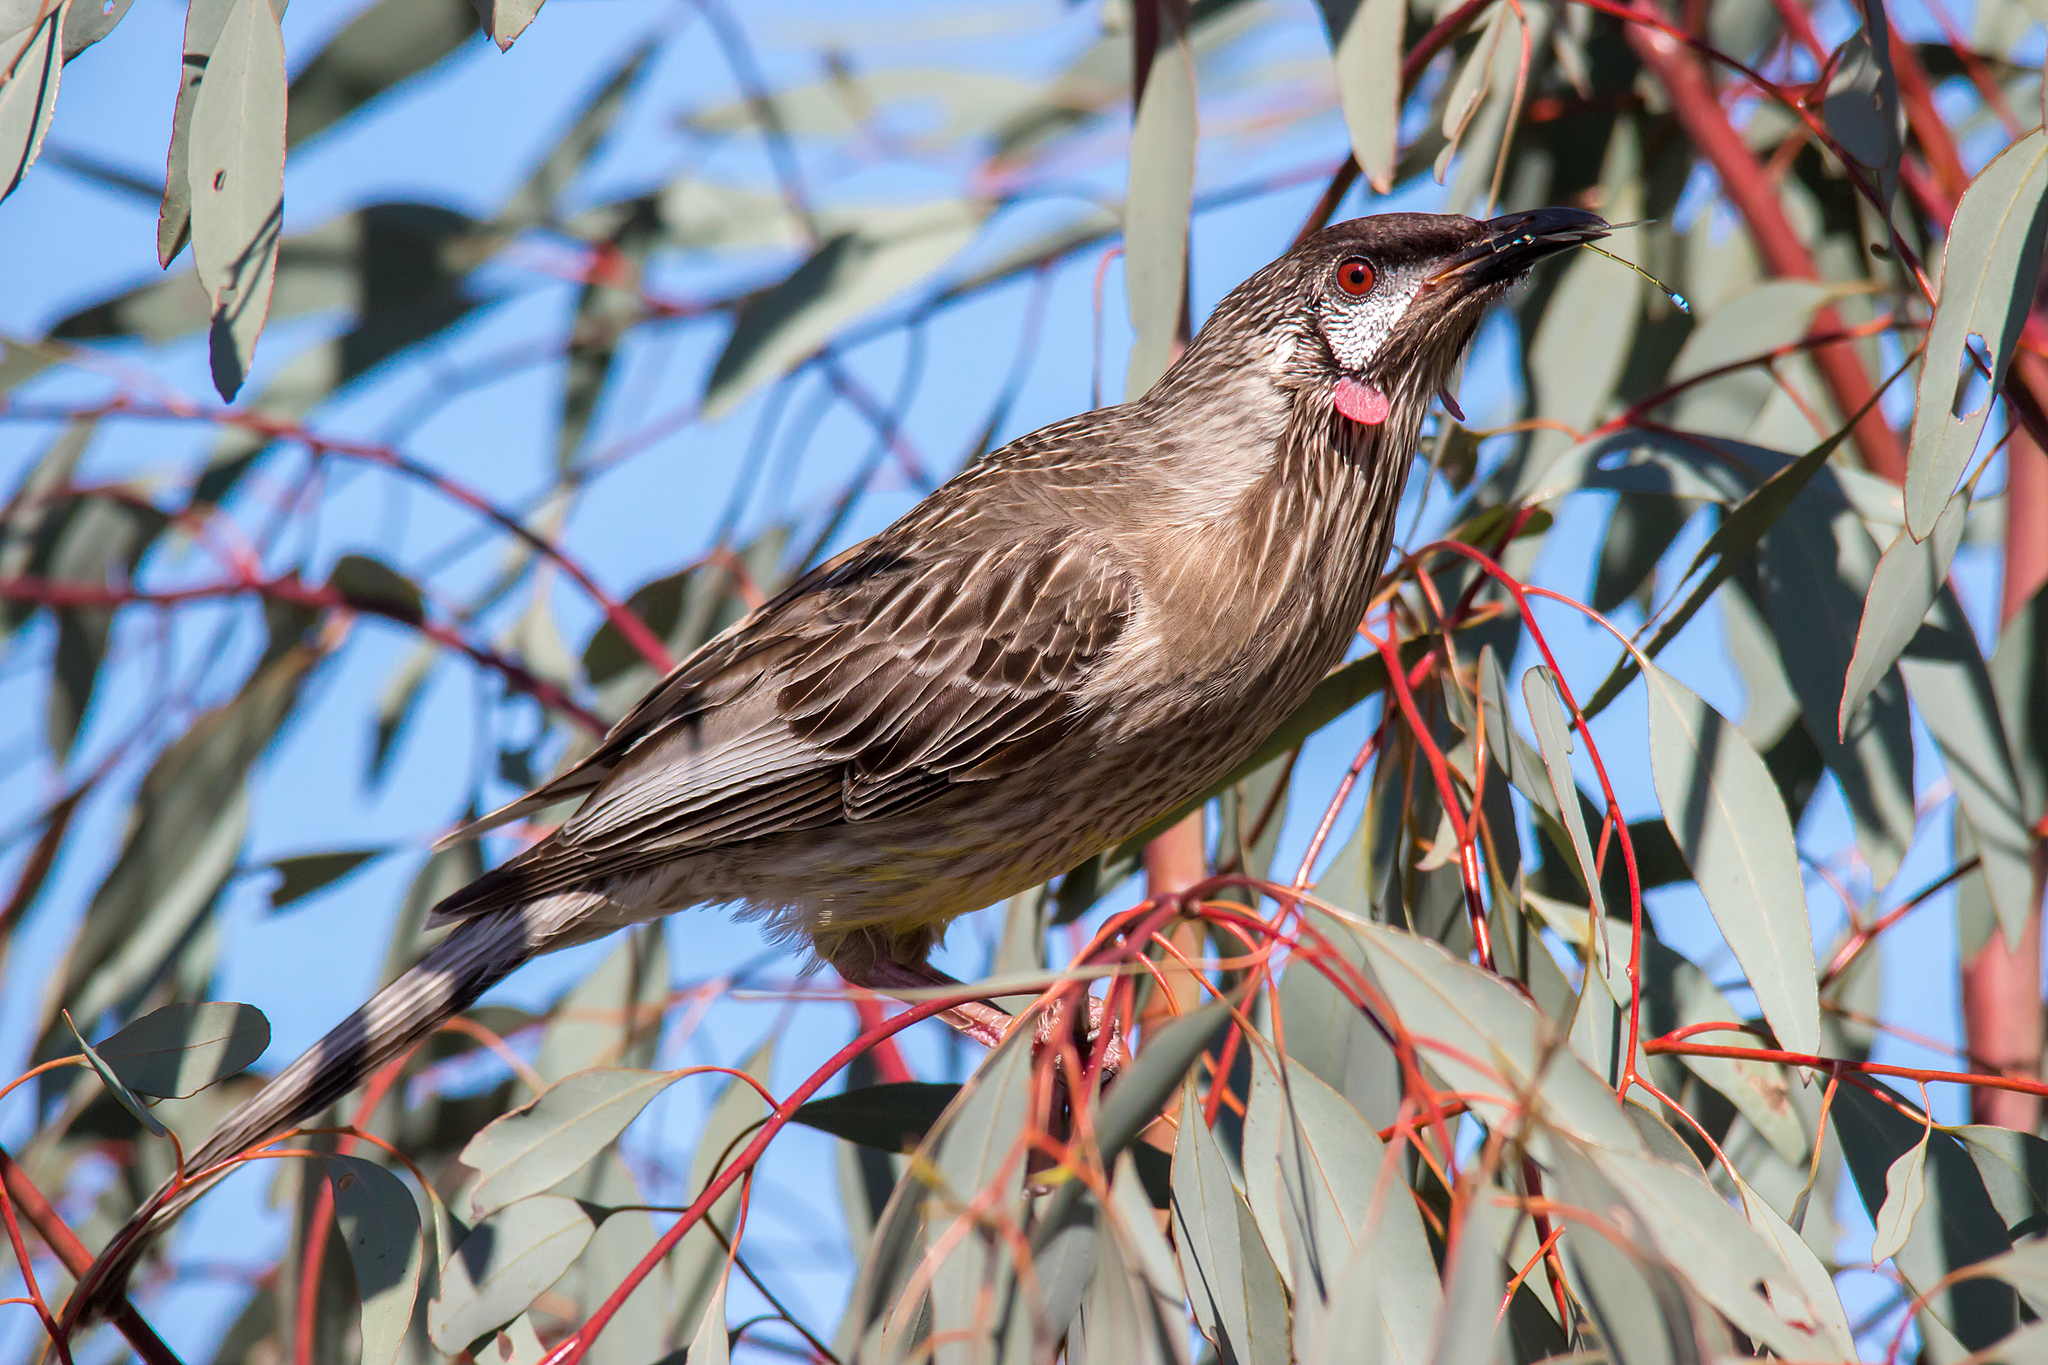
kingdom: Animalia
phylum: Chordata
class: Aves
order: Passeriformes
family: Meliphagidae
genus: Anthochaera
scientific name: Anthochaera carunculata
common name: Red wattlebird
